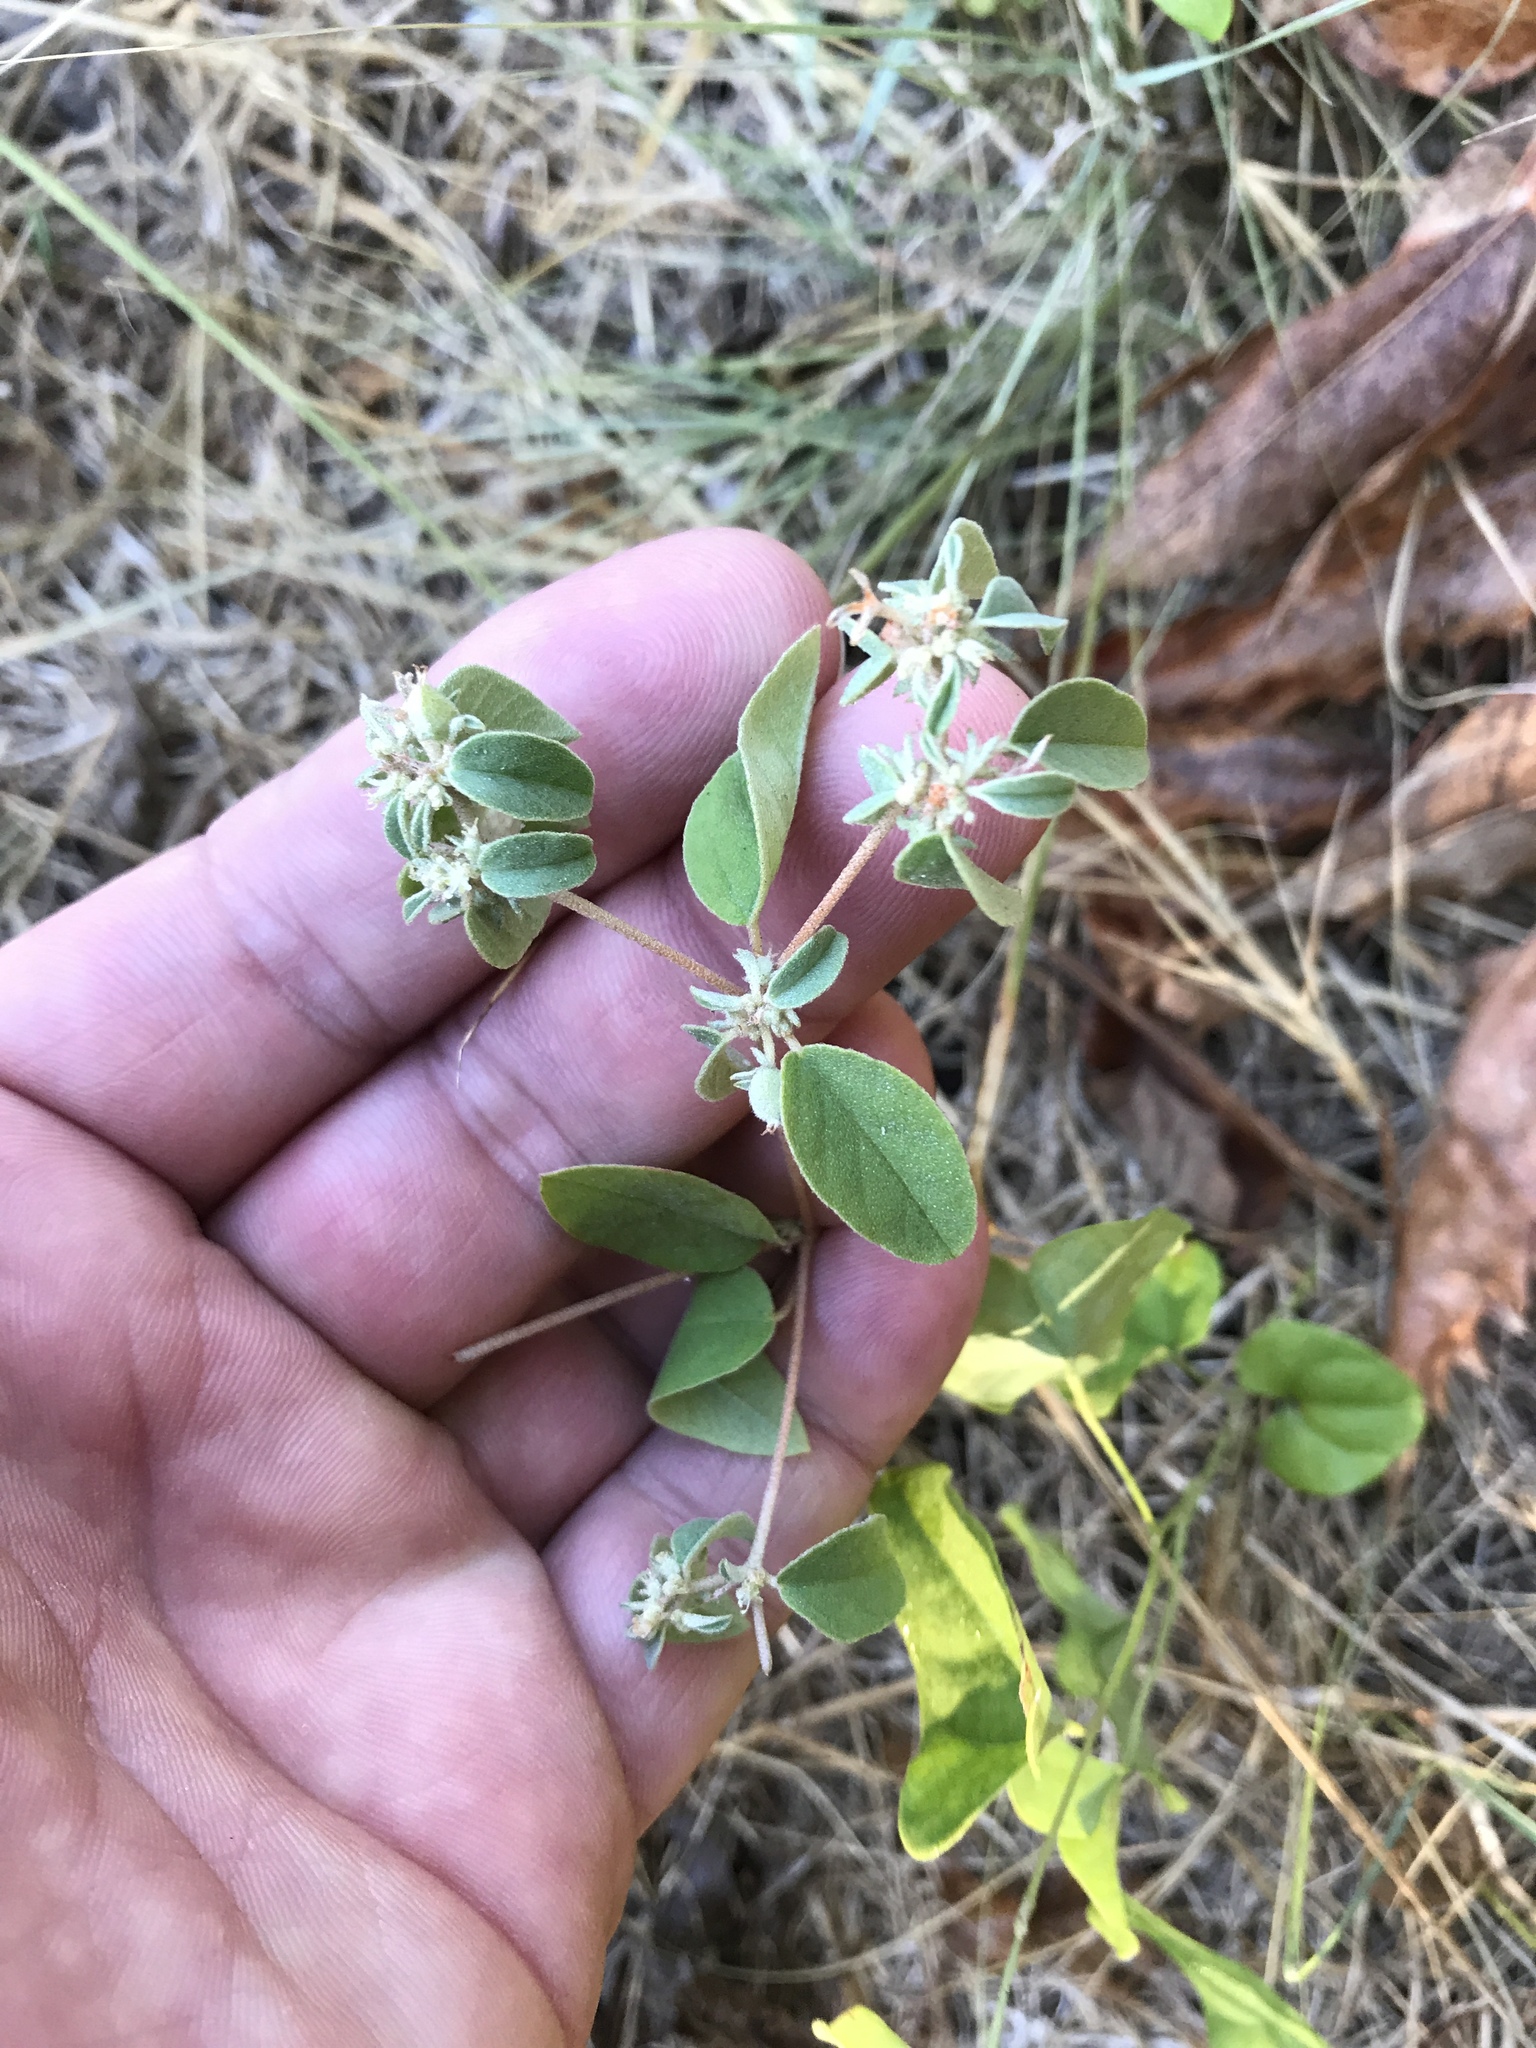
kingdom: Plantae
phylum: Tracheophyta
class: Magnoliopsida
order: Malpighiales
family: Euphorbiaceae
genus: Croton
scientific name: Croton monanthogynus
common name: One-seed croton
